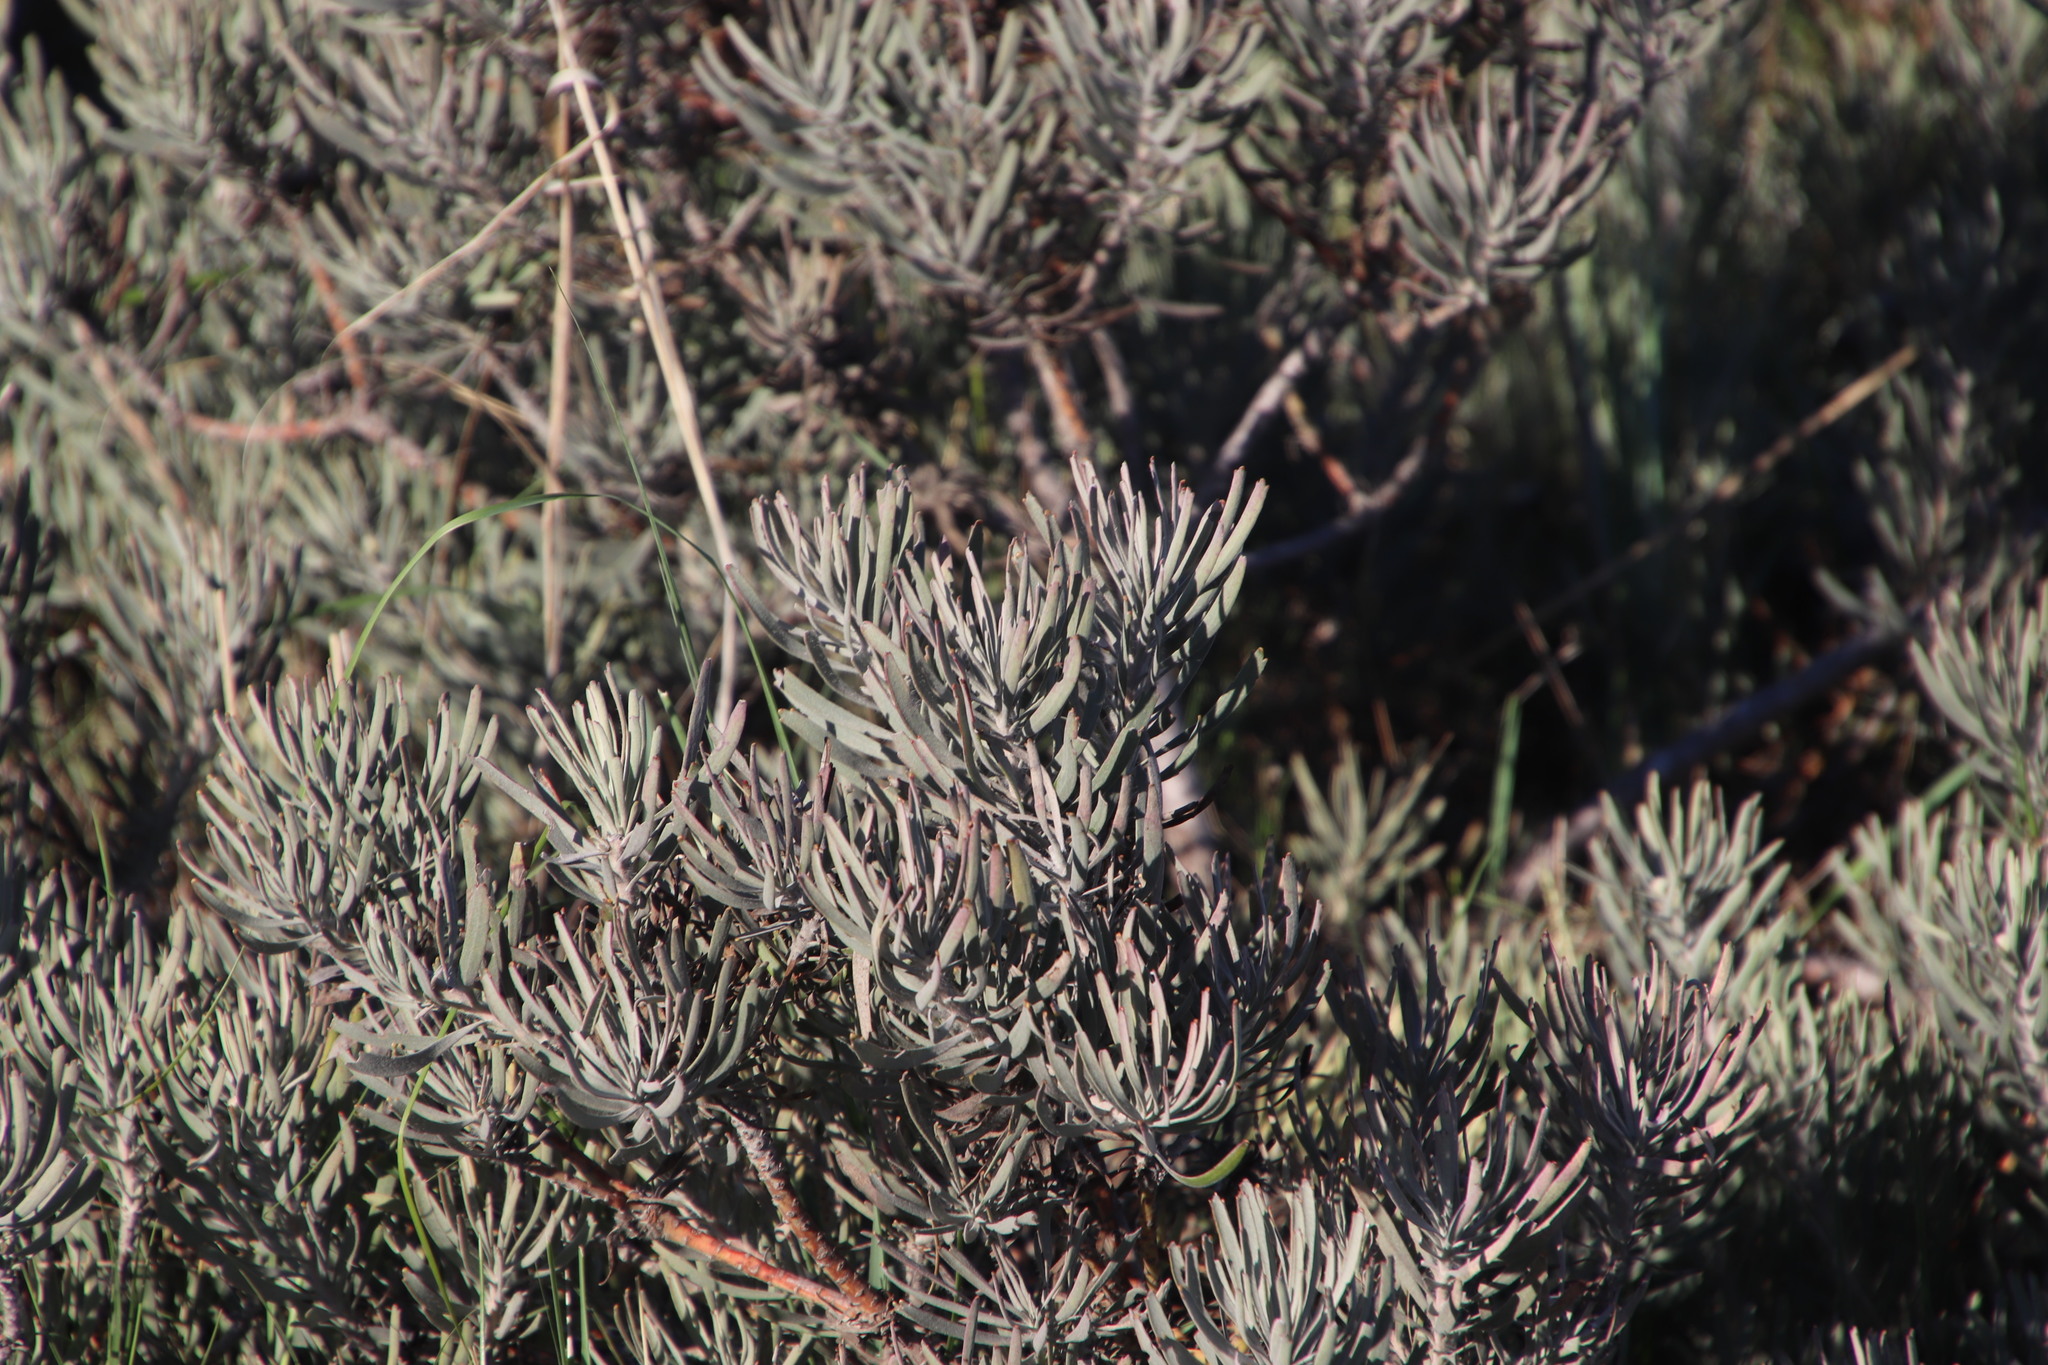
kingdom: Plantae
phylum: Tracheophyta
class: Magnoliopsida
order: Proteales
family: Proteaceae
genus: Leucospermum
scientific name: Leucospermum tomentosum
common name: Saldanha pincushion
